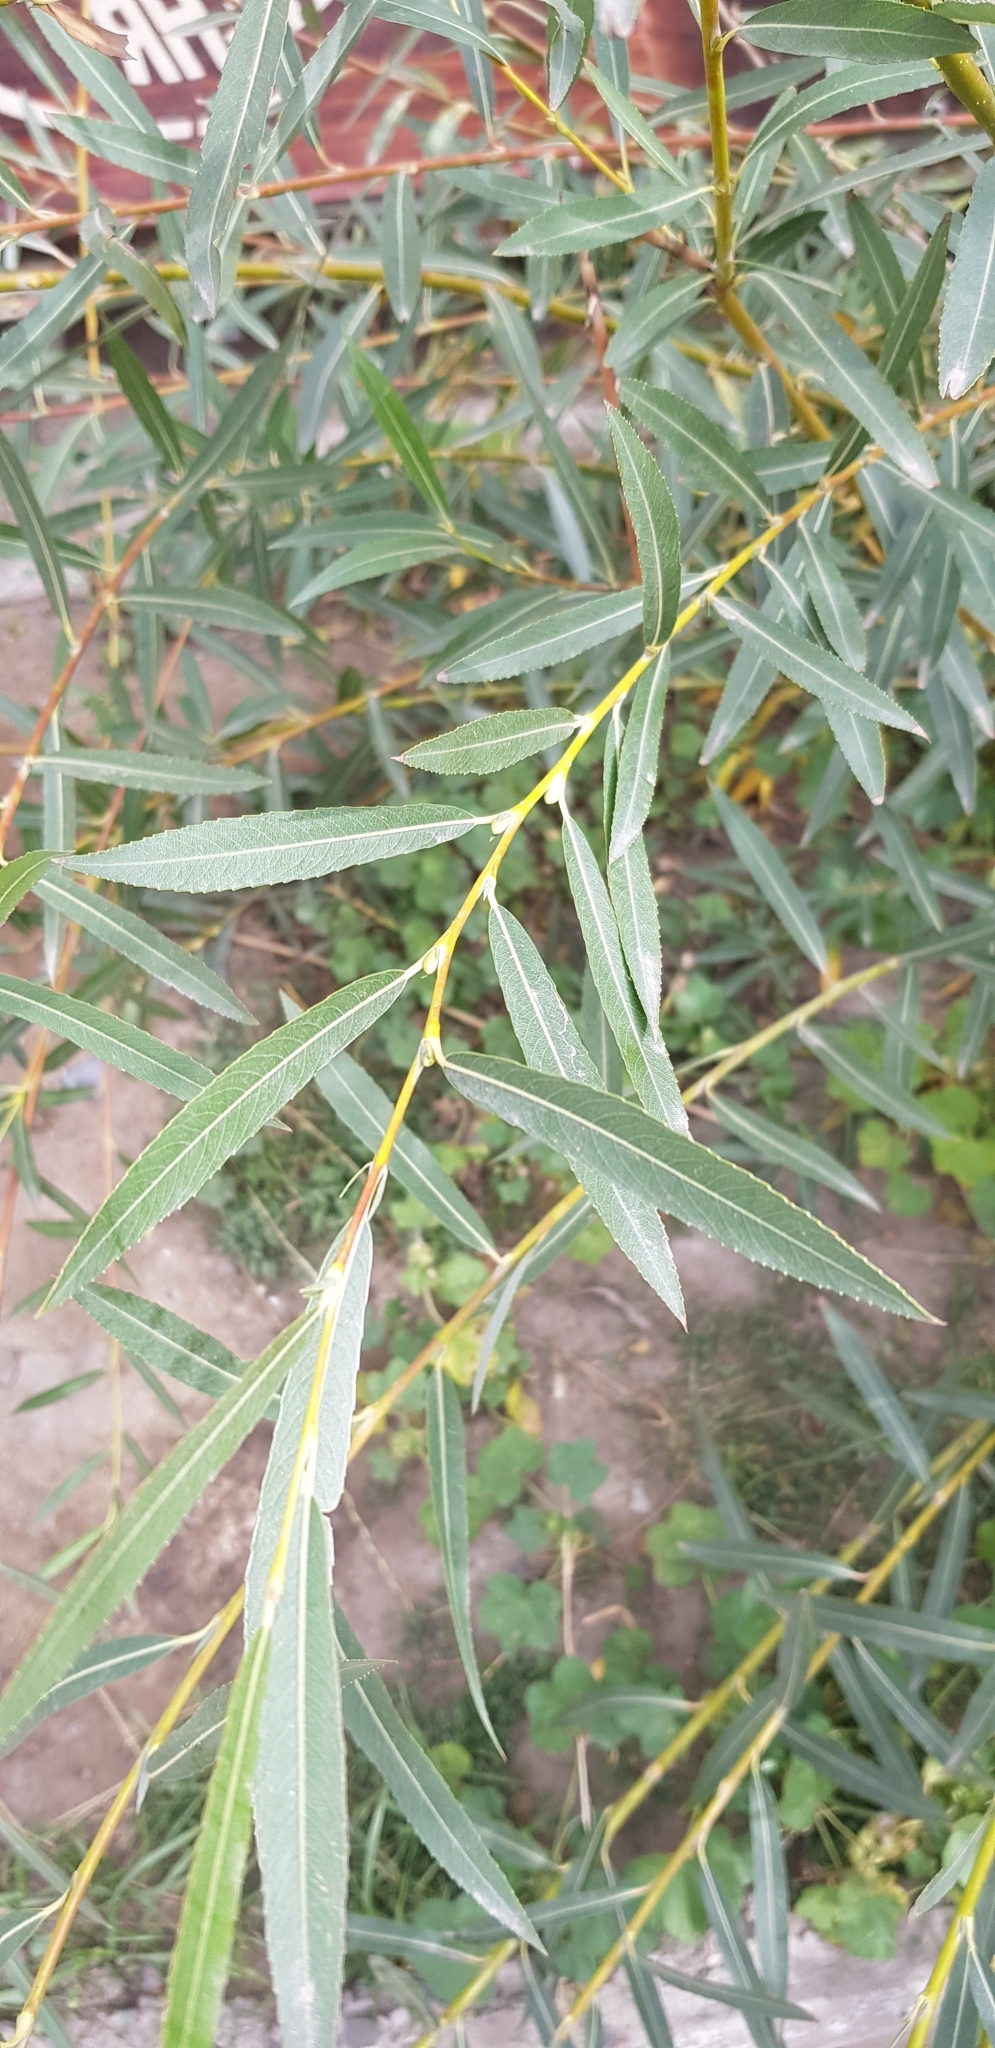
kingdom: Plantae
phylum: Tracheophyta
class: Magnoliopsida
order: Malpighiales
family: Salicaceae
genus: Salix
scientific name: Salix viminalis
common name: Osier
